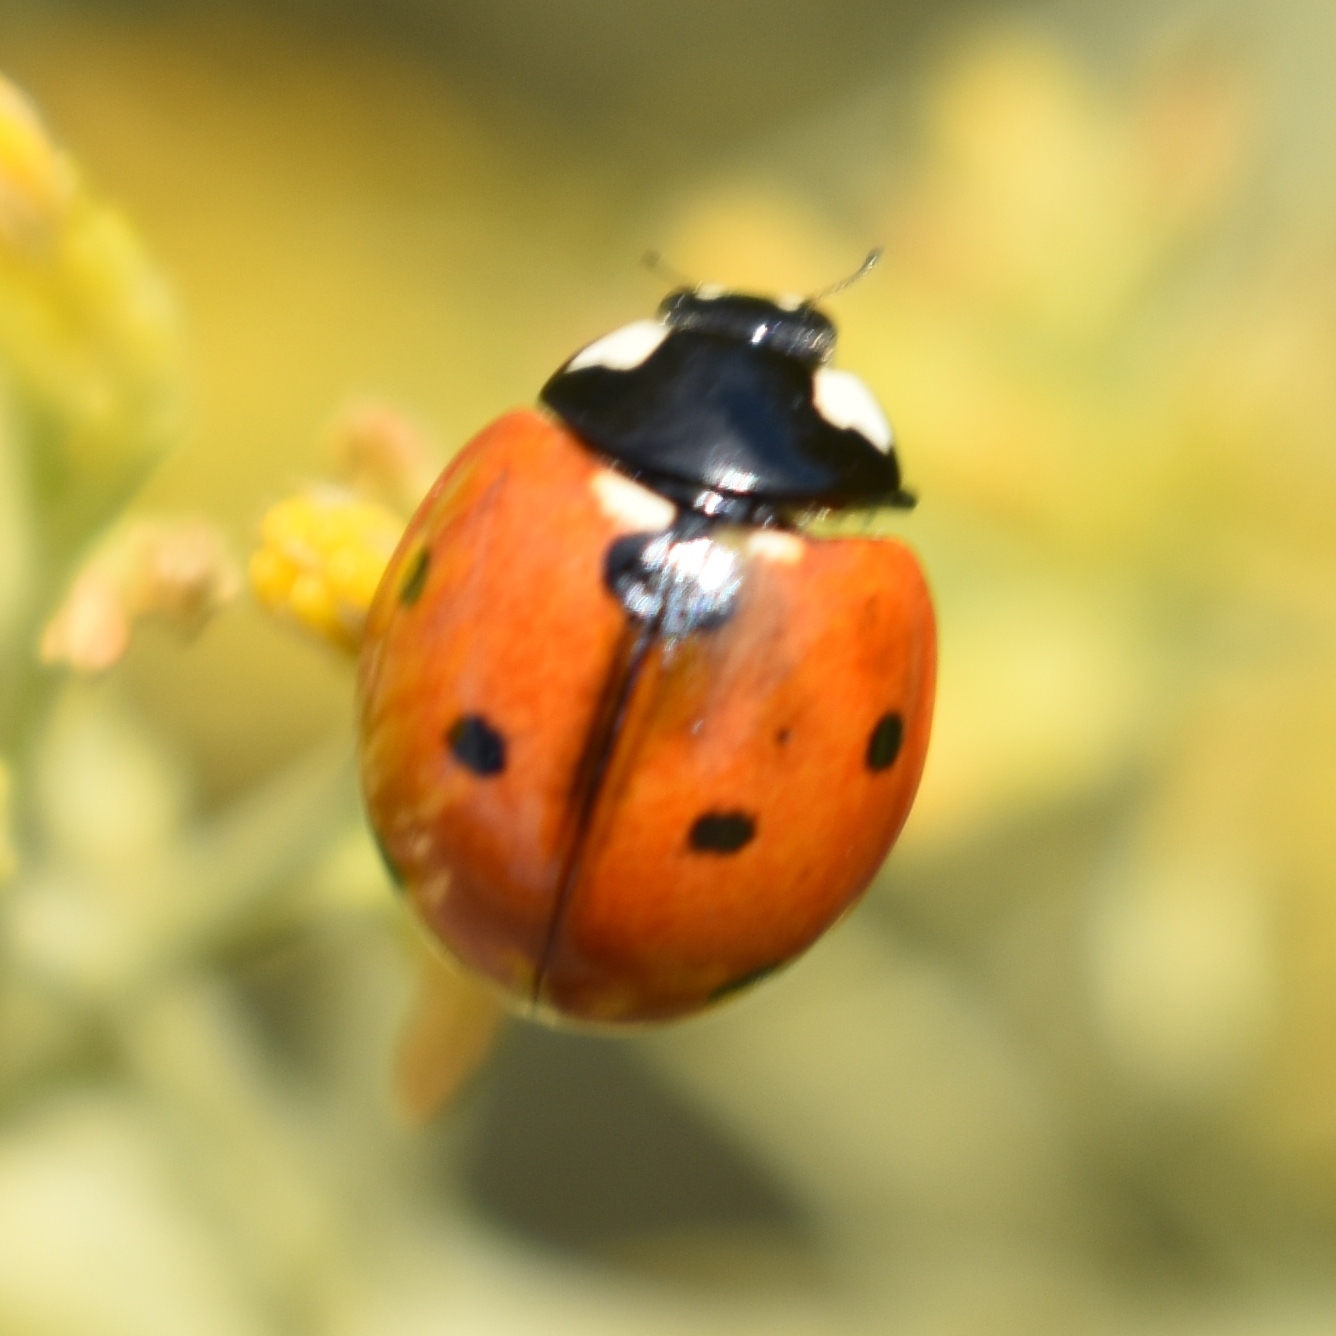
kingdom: Animalia
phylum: Arthropoda
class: Insecta
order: Coleoptera
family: Coccinellidae
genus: Coccinella
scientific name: Coccinella septempunctata
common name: Sevenspotted lady beetle
